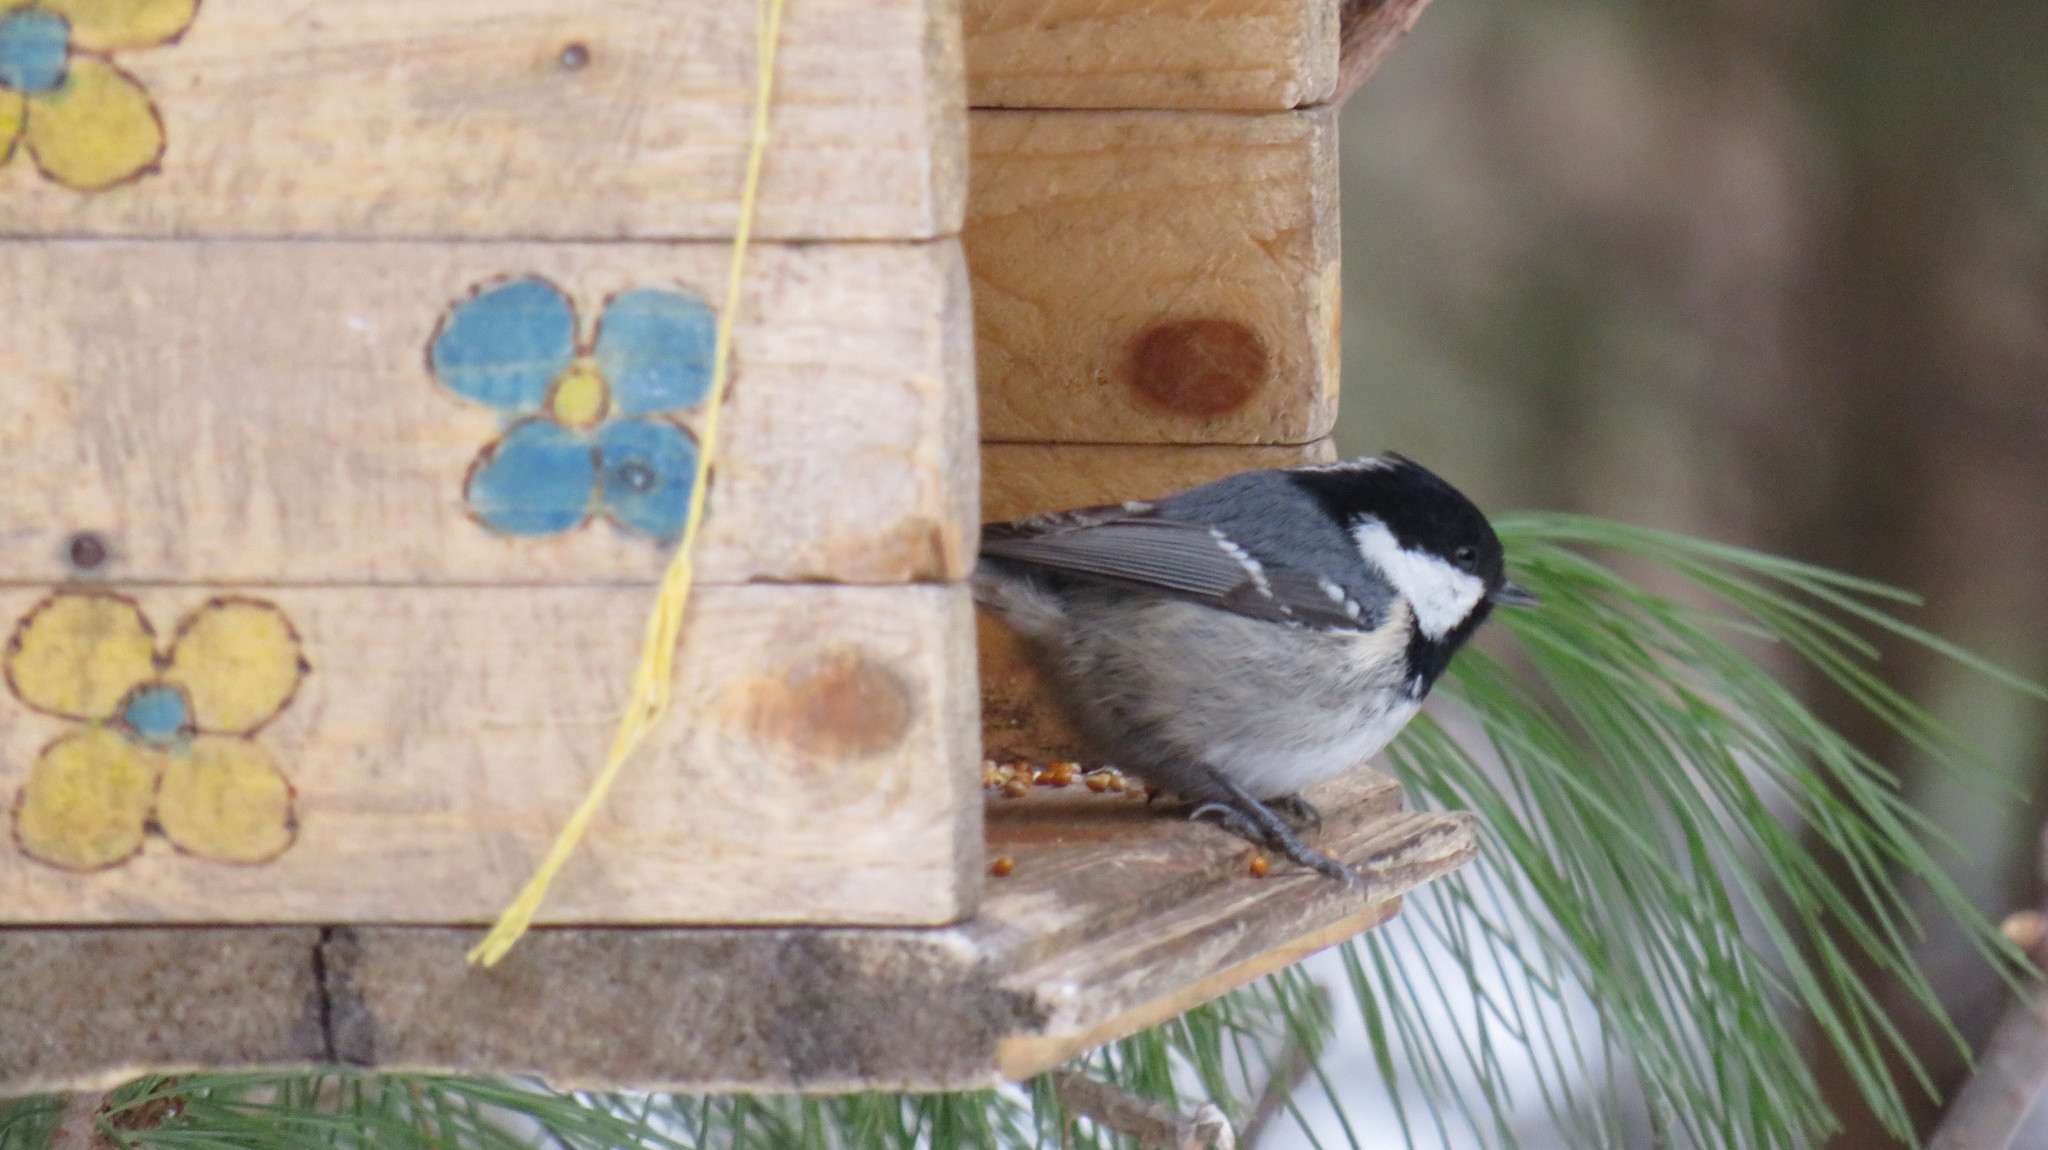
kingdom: Animalia
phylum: Chordata
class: Aves
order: Passeriformes
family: Paridae
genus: Periparus
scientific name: Periparus ater
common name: Coal tit
